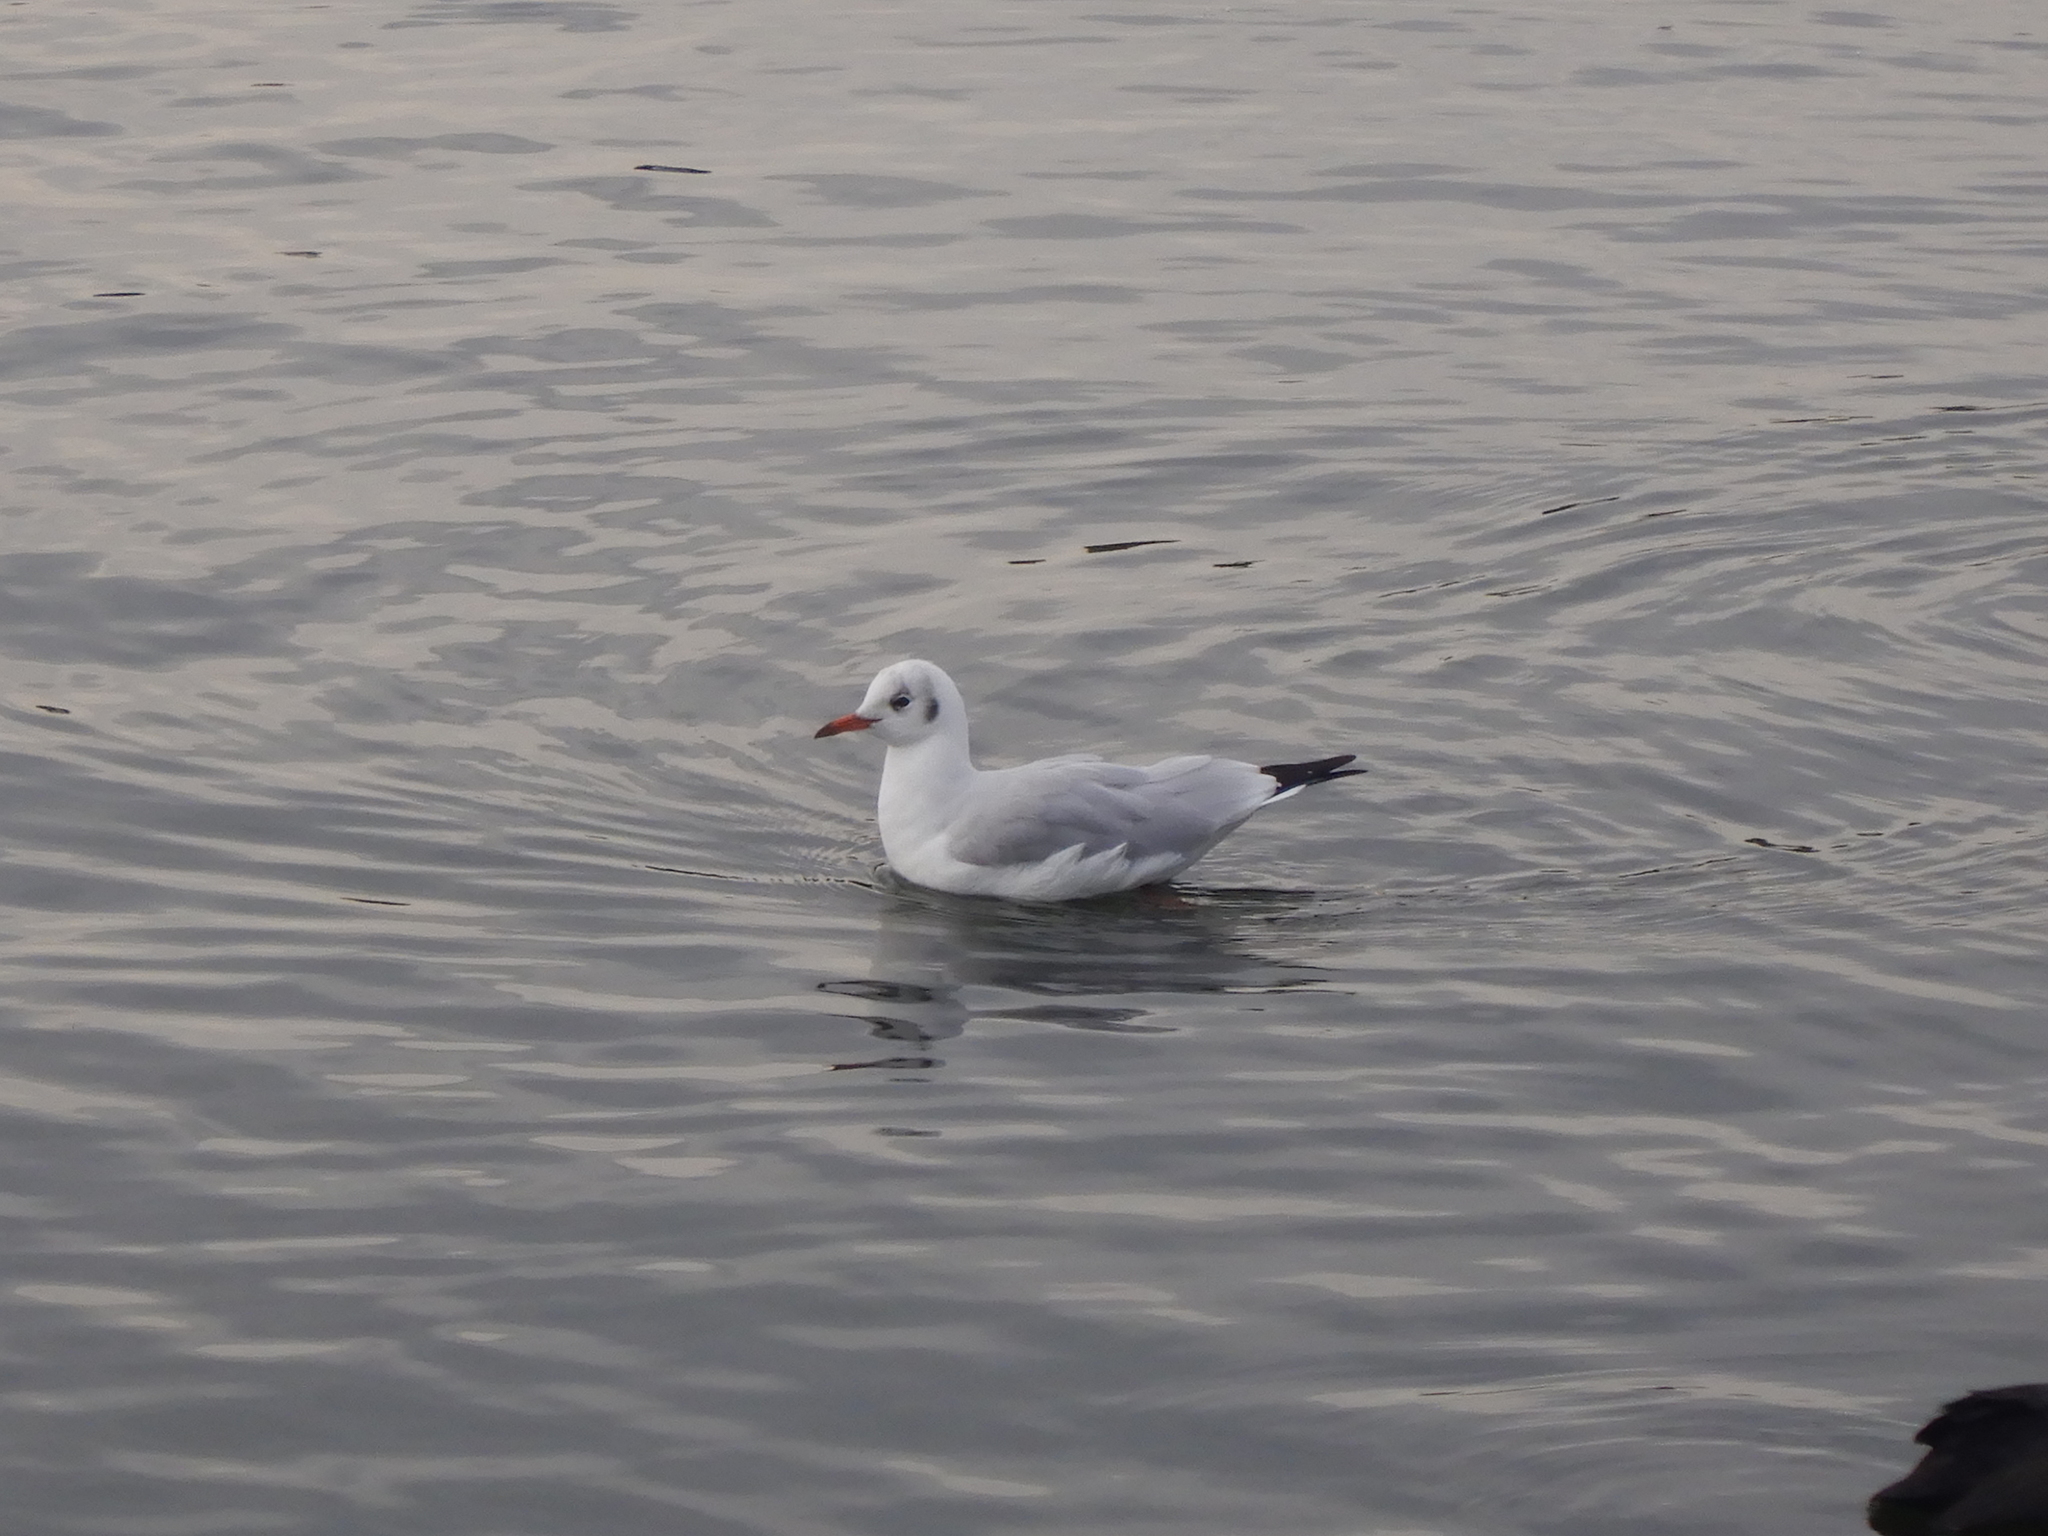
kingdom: Animalia
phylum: Chordata
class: Aves
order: Charadriiformes
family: Laridae
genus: Chroicocephalus
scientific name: Chroicocephalus ridibundus
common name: Black-headed gull
